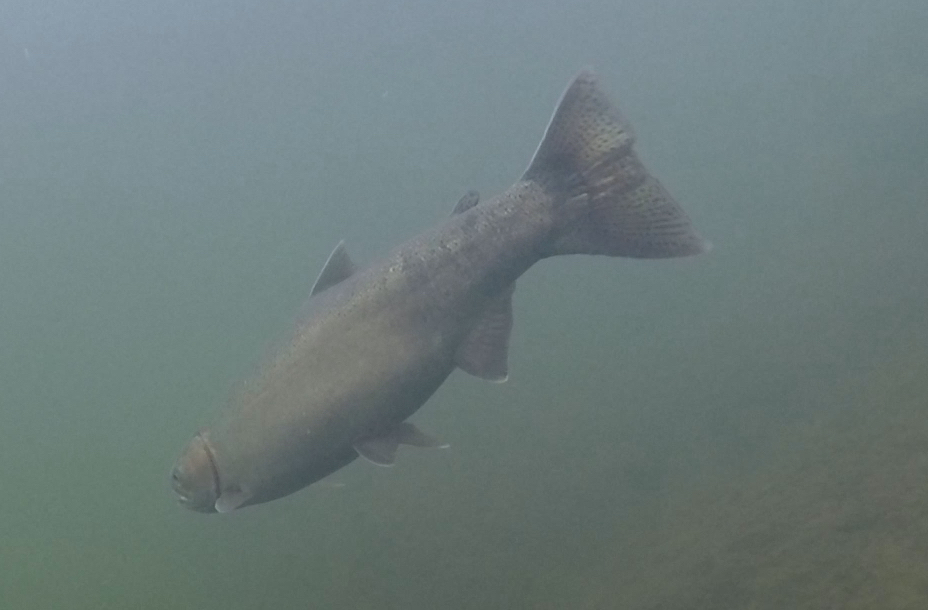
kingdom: Animalia
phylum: Chordata
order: Salmoniformes
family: Salmonidae
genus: Oncorhynchus
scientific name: Oncorhynchus mykiss
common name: Rainbow trout
